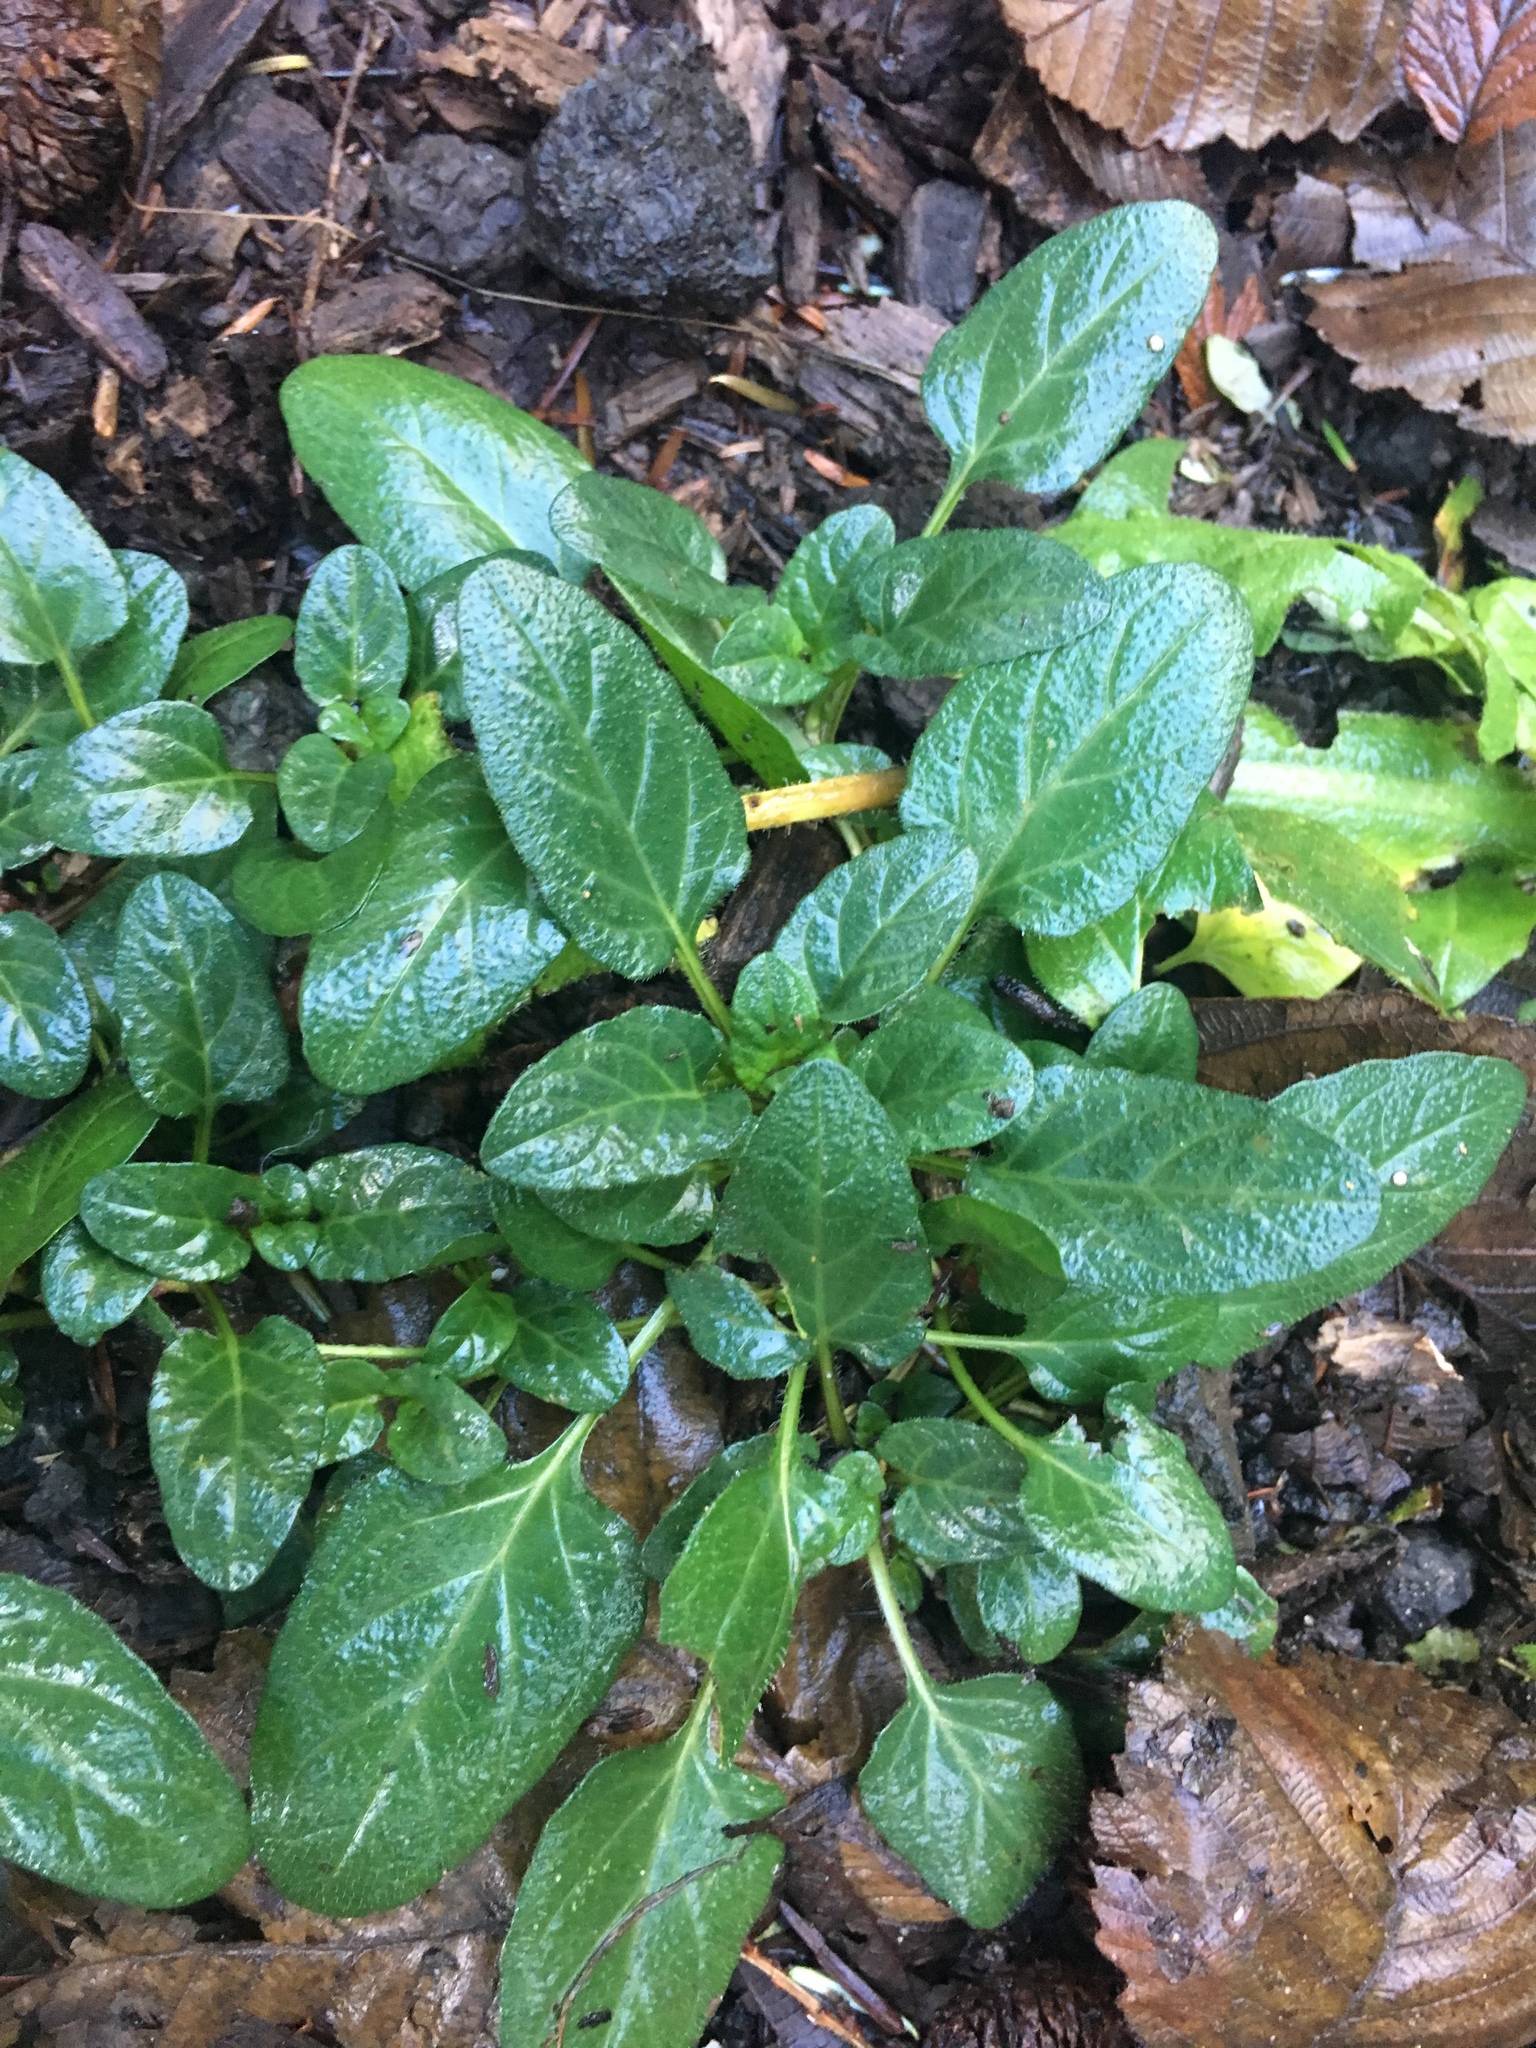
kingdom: Plantae
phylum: Tracheophyta
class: Magnoliopsida
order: Lamiales
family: Lamiaceae
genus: Prunella
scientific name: Prunella vulgaris
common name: Heal-all
